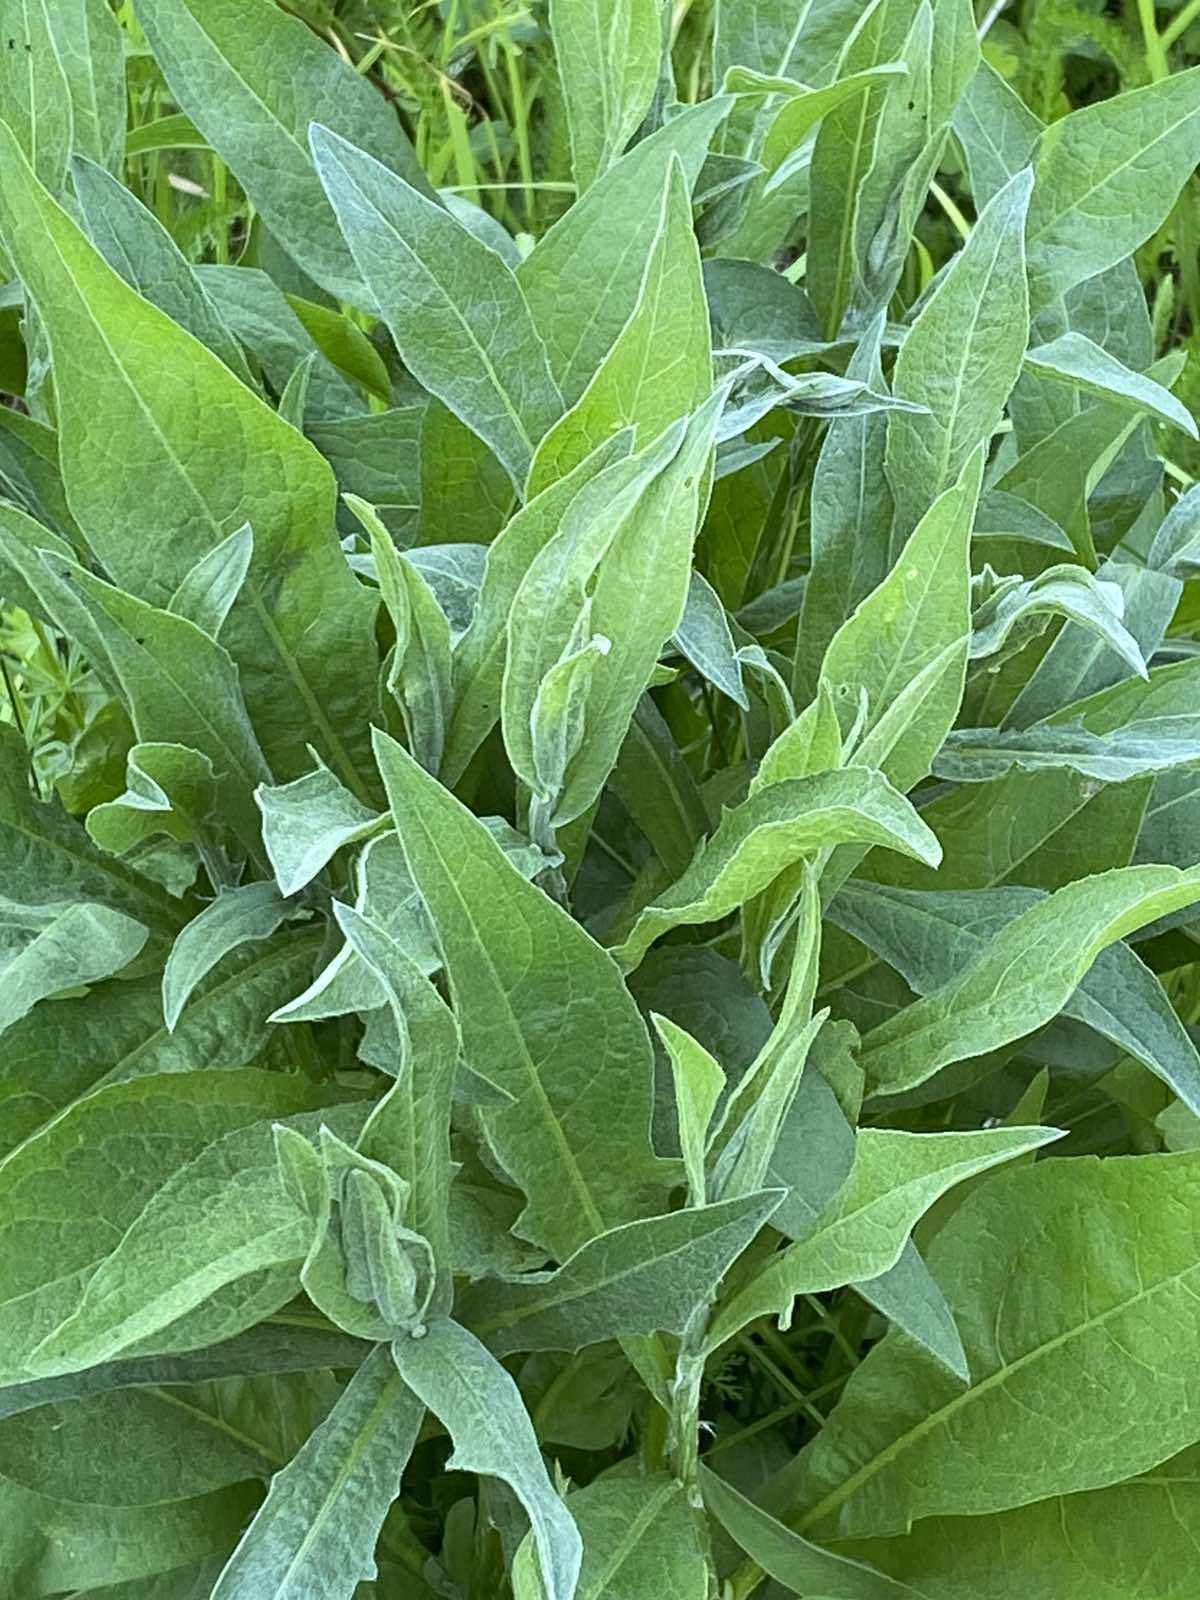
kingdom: Plantae
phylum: Tracheophyta
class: Magnoliopsida
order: Asterales
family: Asteraceae
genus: Centaurea
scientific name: Centaurea jacea
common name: Brown knapweed
